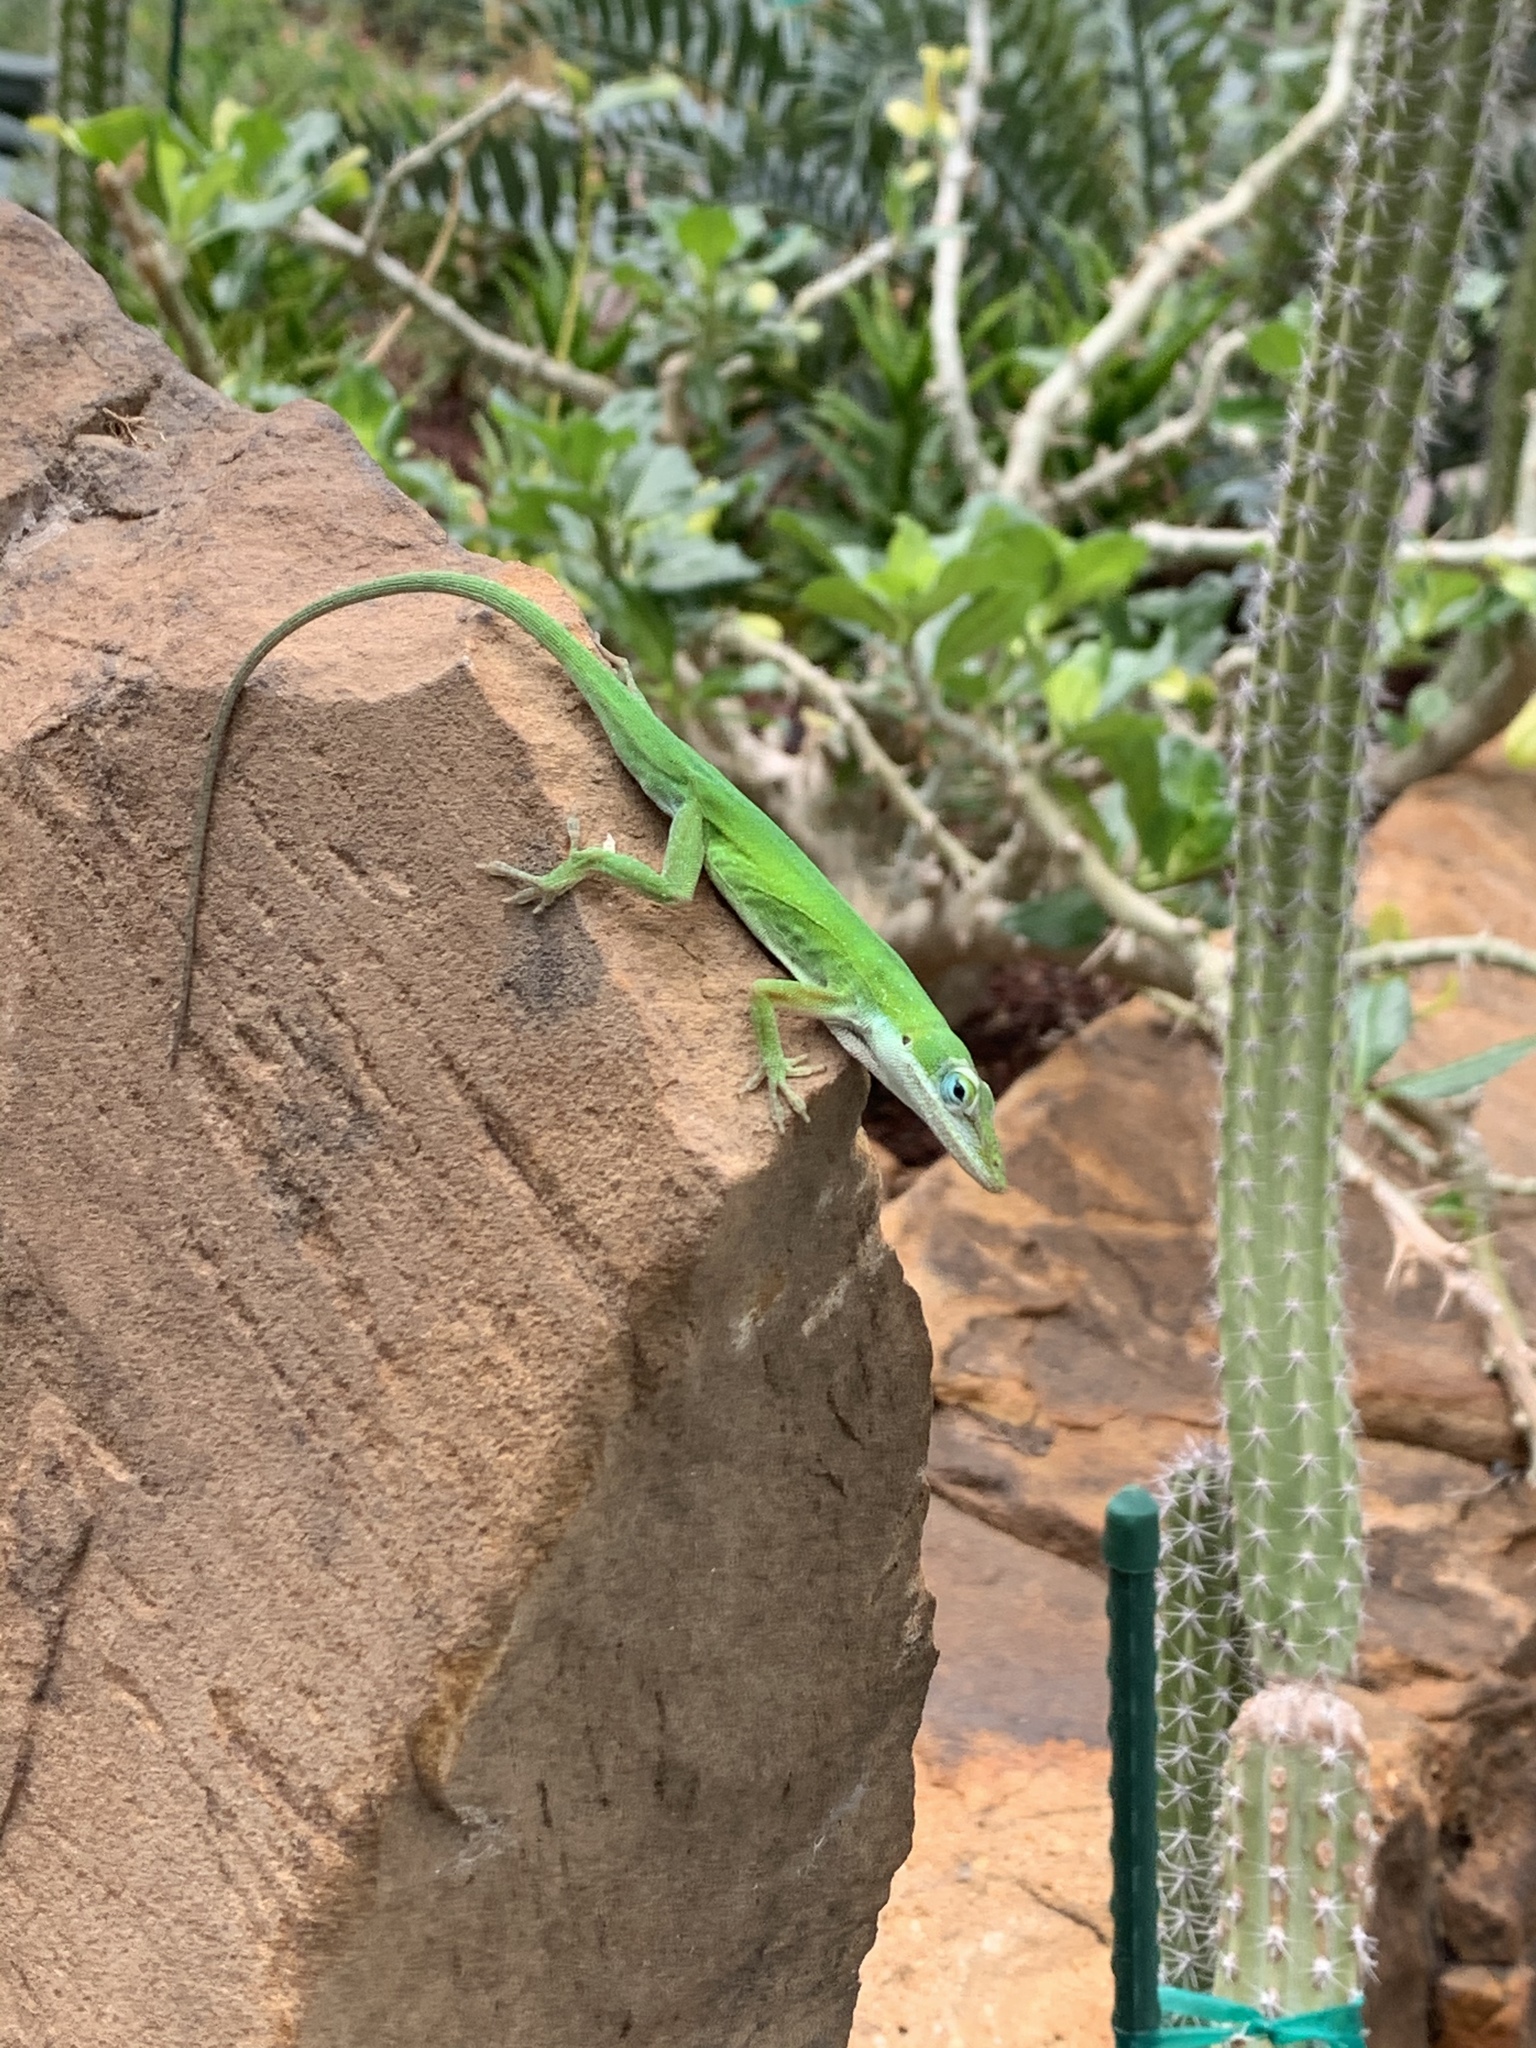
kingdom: Animalia
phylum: Chordata
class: Squamata
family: Dactyloidae
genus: Anolis
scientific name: Anolis carolinensis
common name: Green anole
